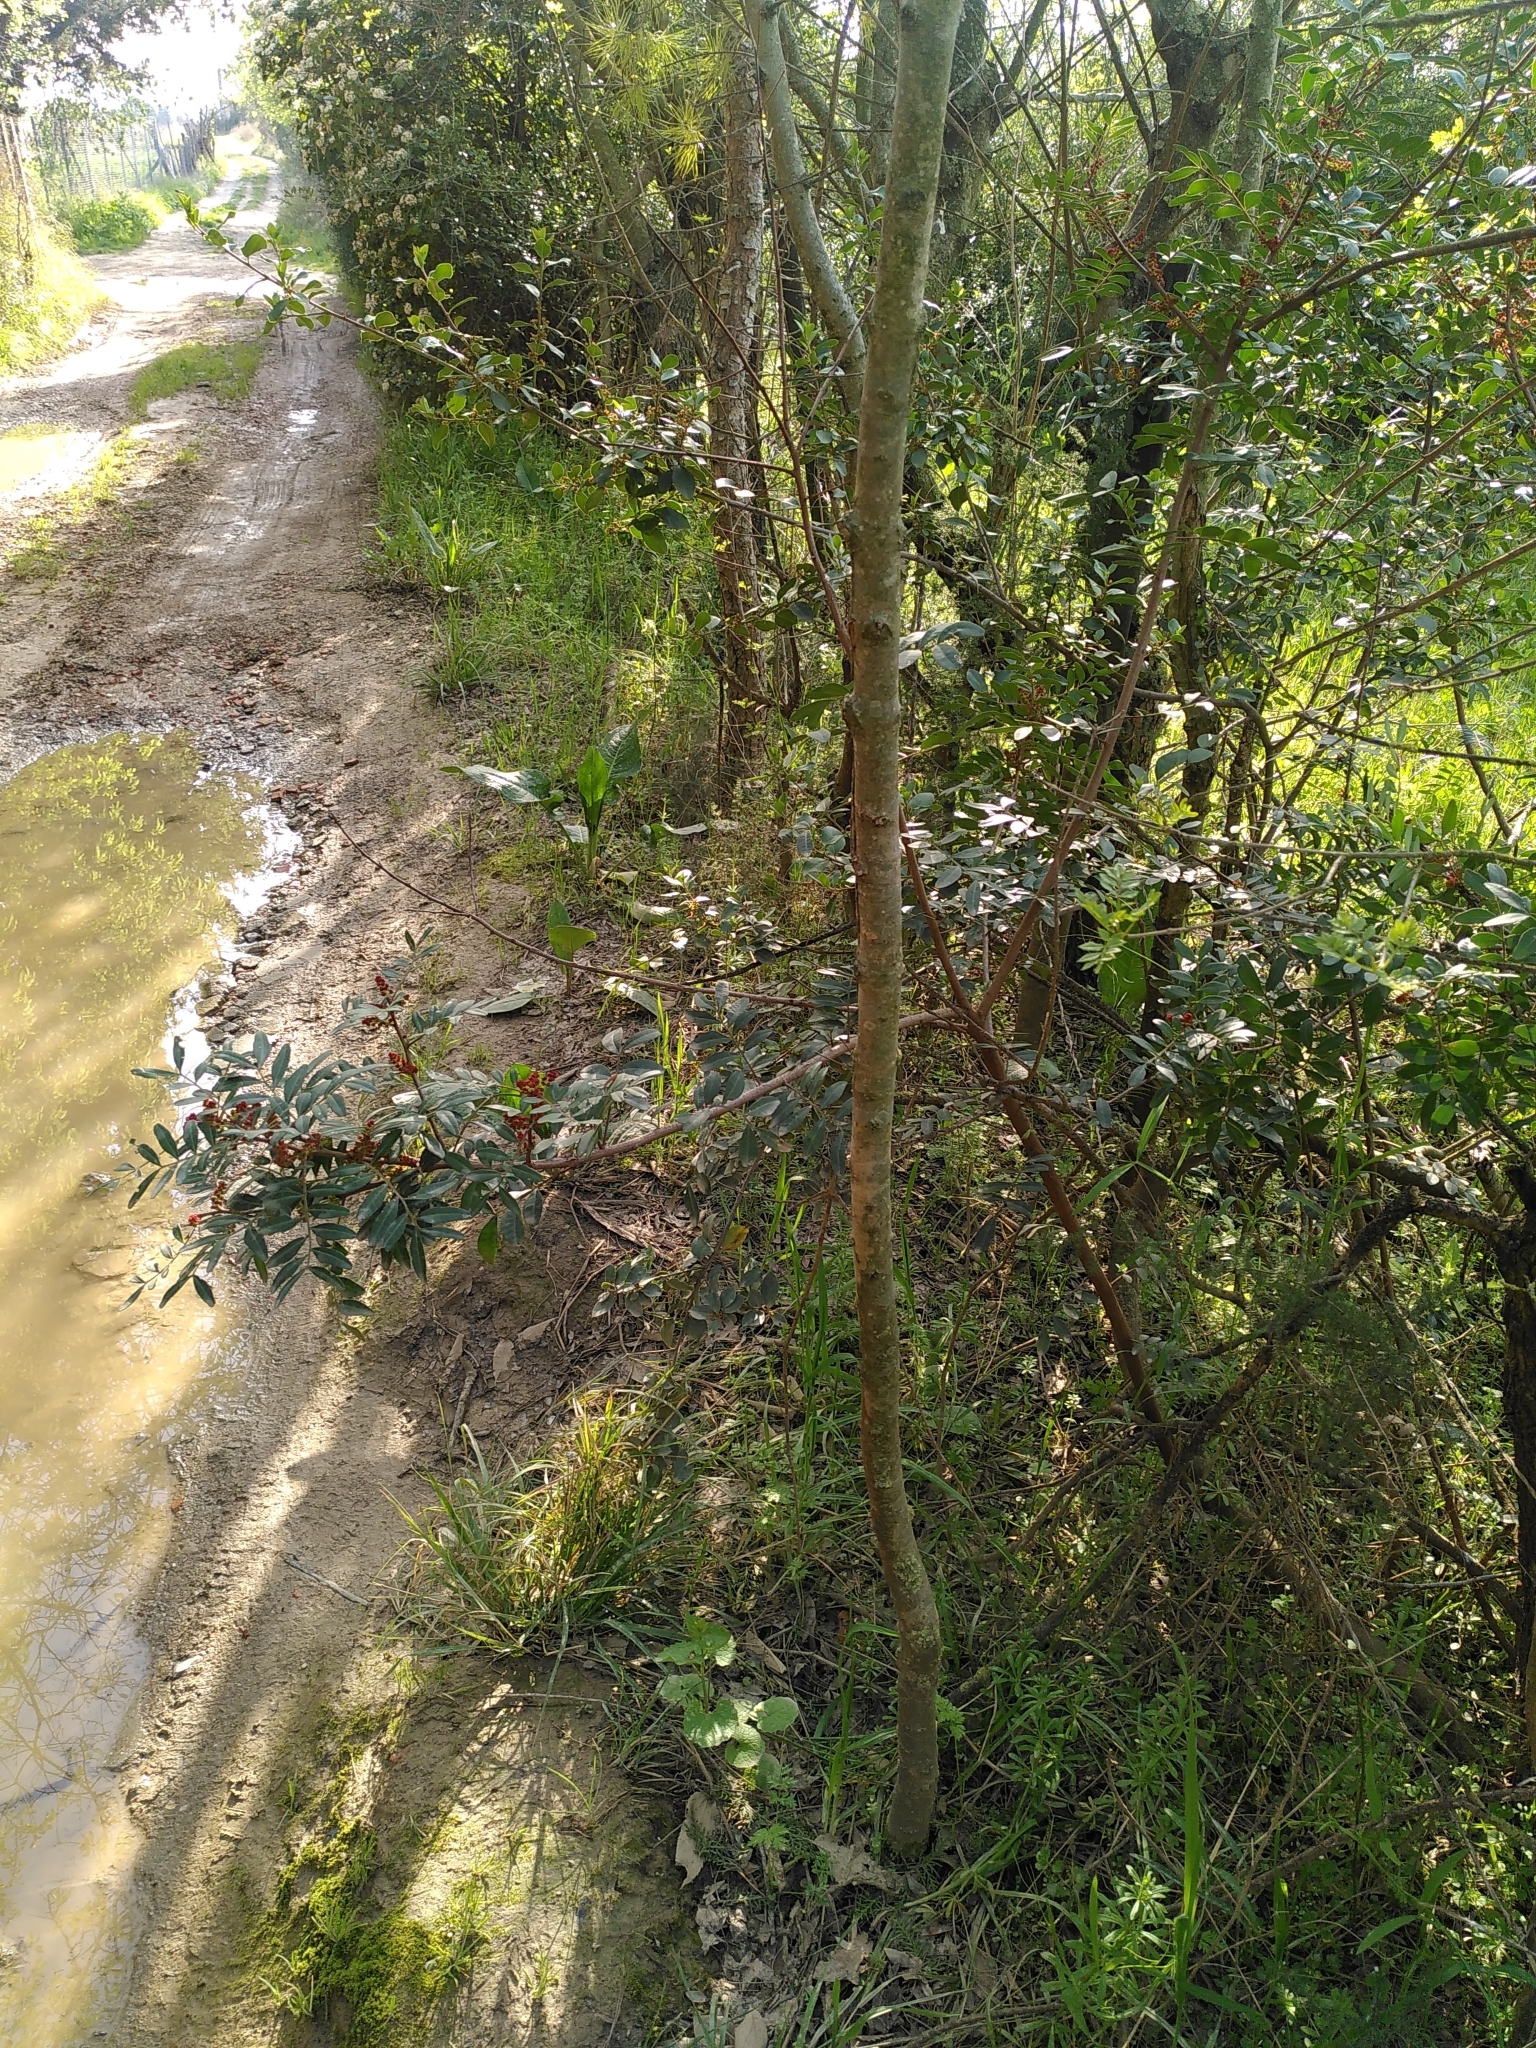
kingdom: Plantae
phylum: Tracheophyta
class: Magnoliopsida
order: Sapindales
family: Anacardiaceae
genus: Pistacia
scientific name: Pistacia lentiscus
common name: Lentisk
